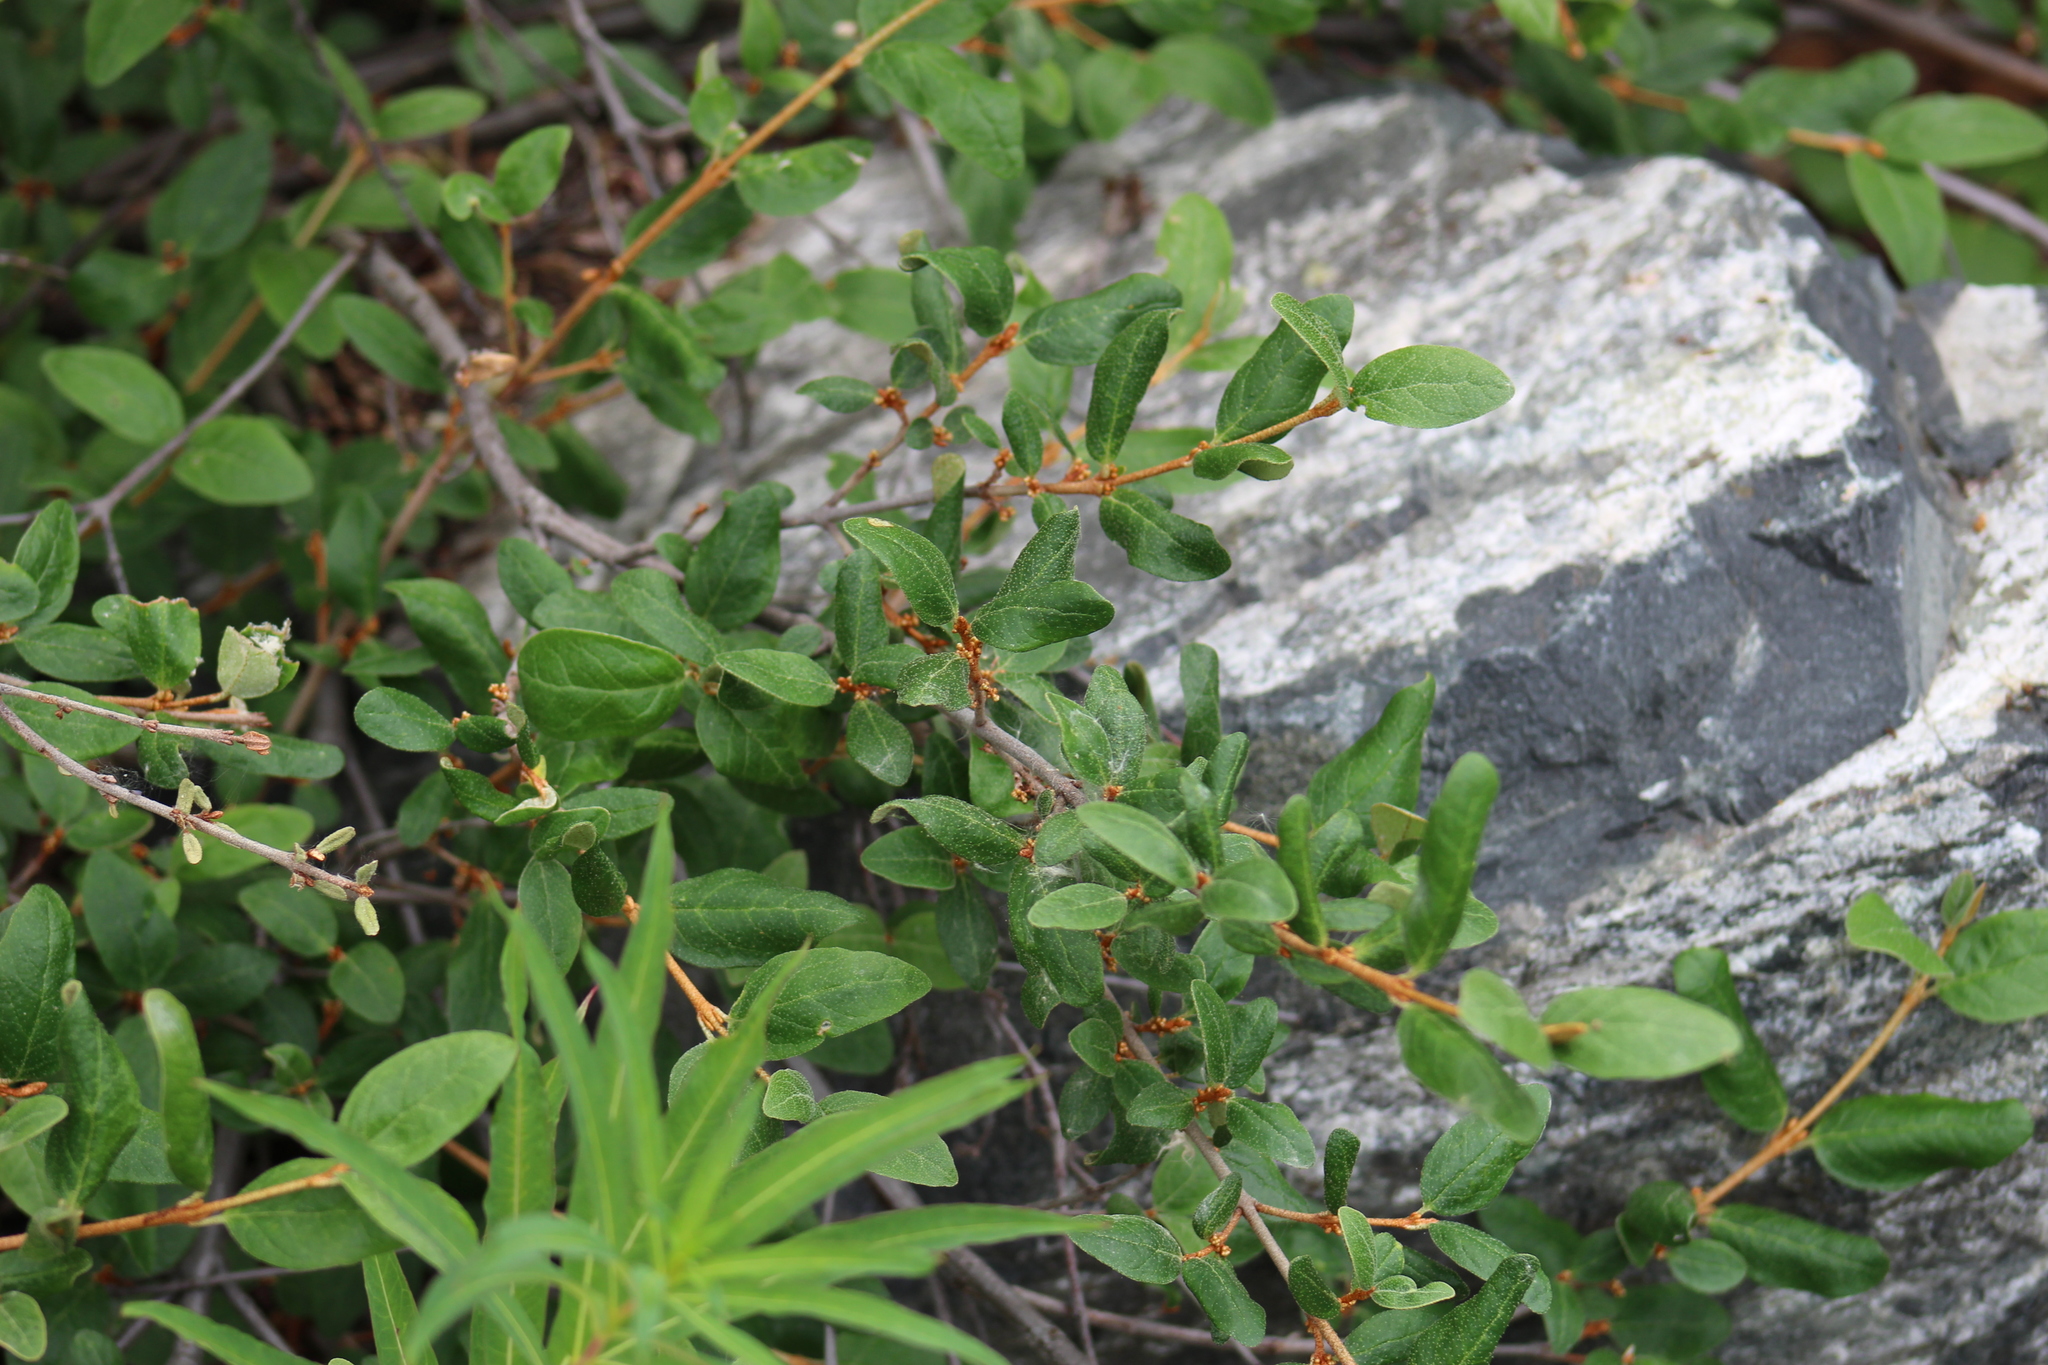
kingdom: Plantae
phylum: Tracheophyta
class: Magnoliopsida
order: Rosales
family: Elaeagnaceae
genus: Shepherdia
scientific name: Shepherdia canadensis
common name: Soapberry
